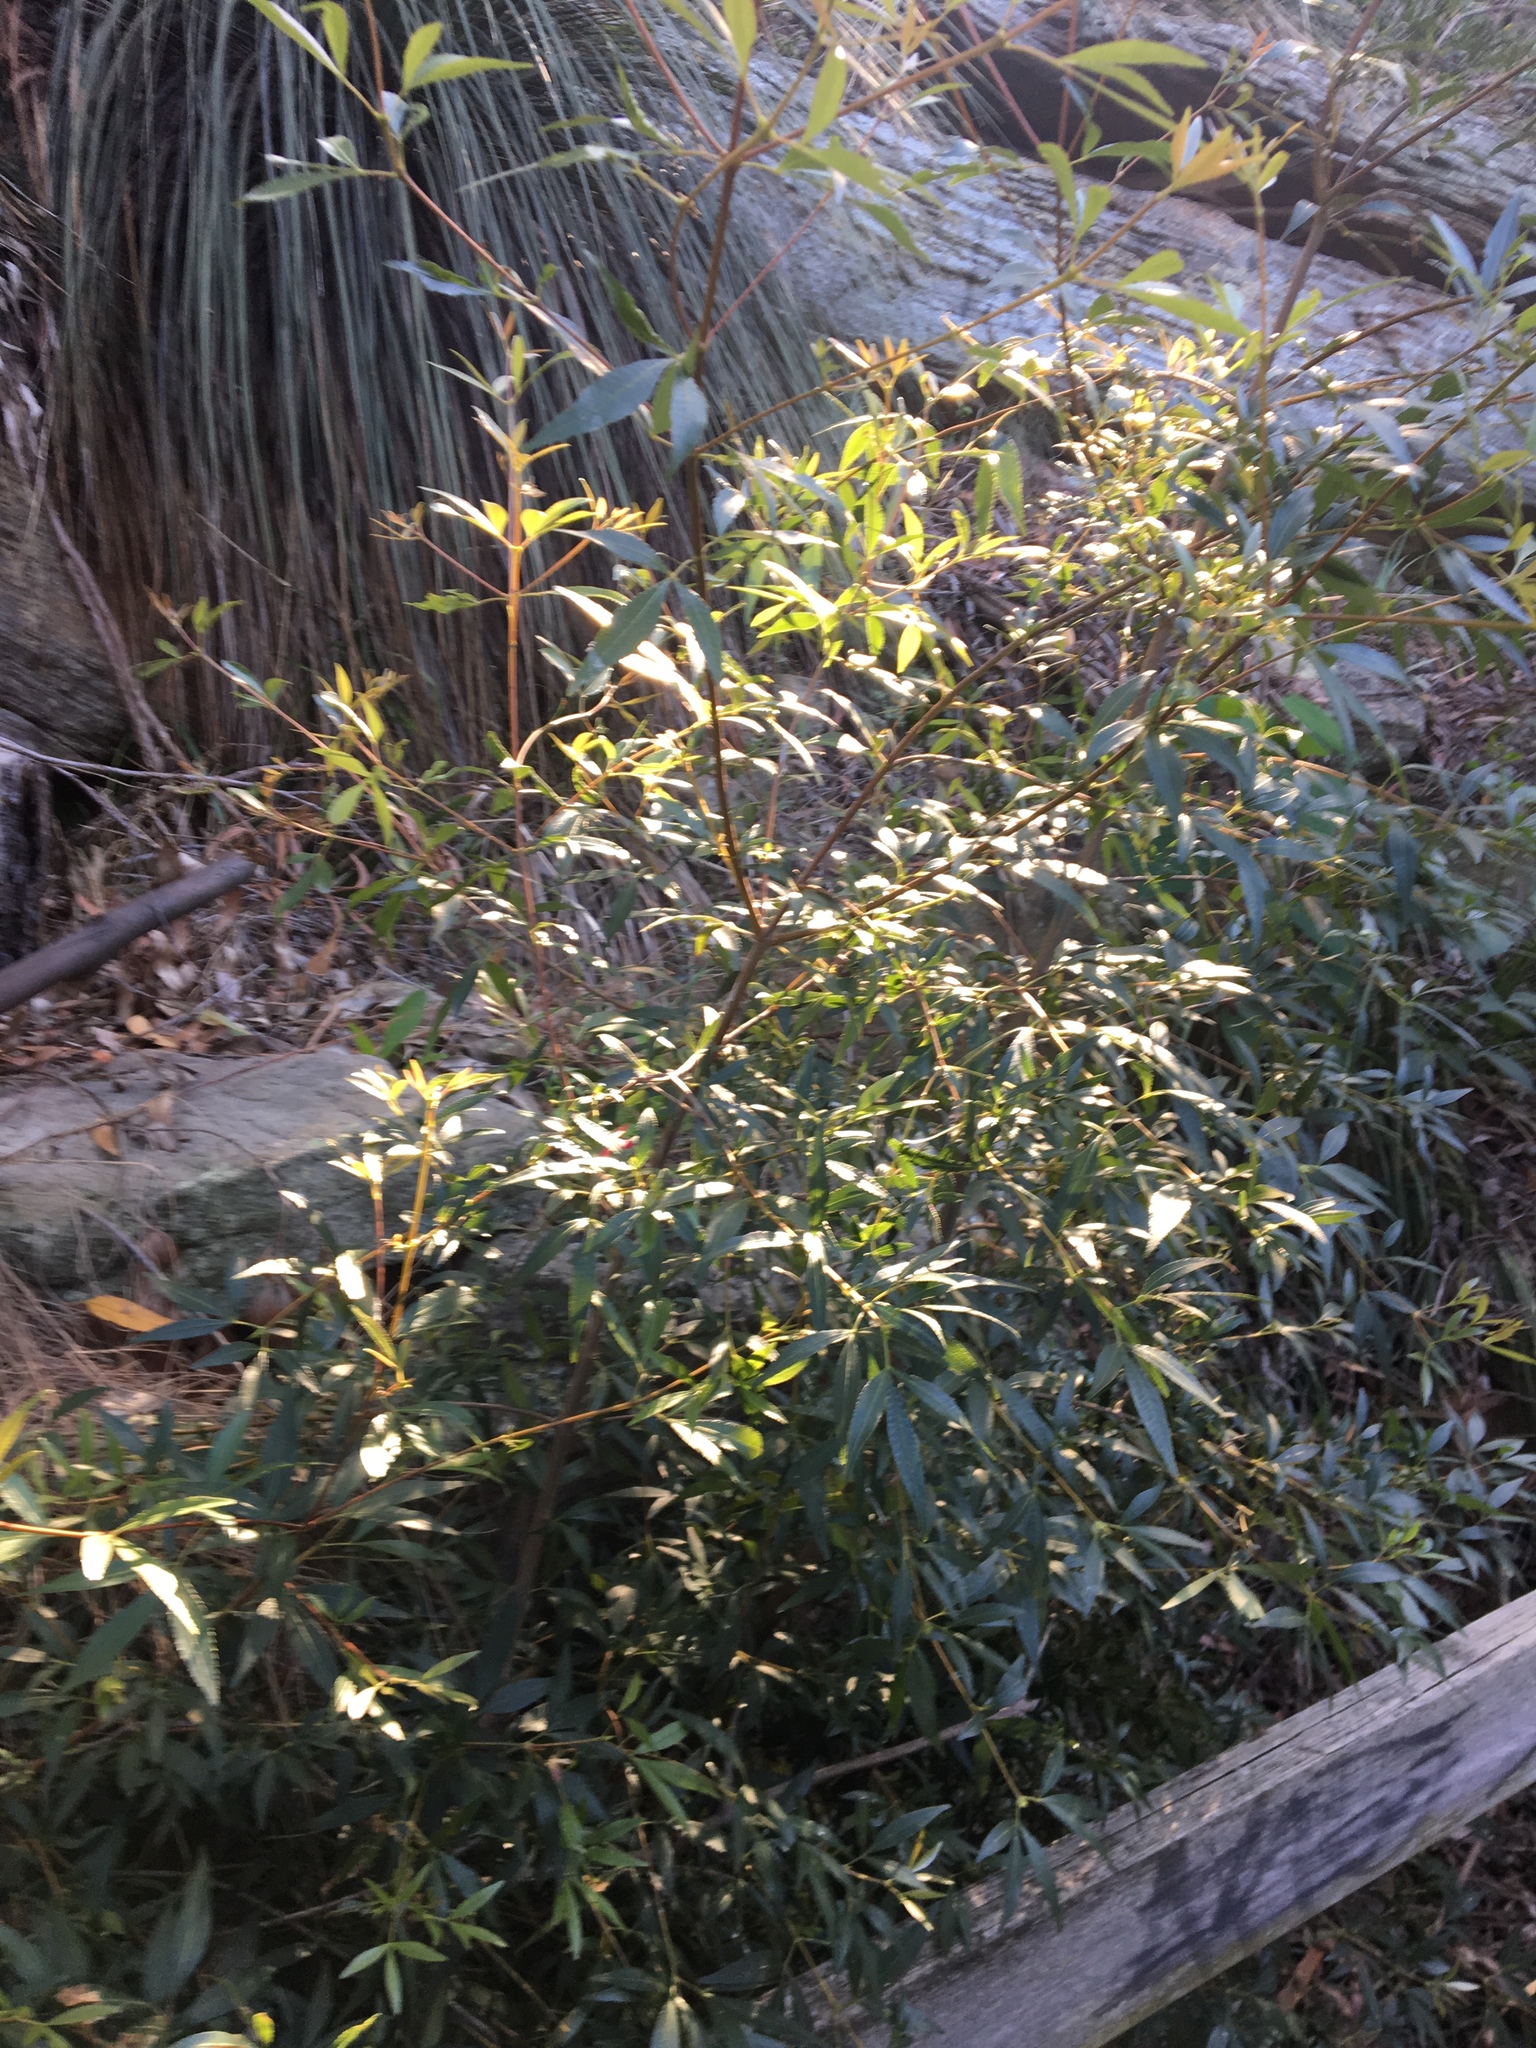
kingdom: Plantae
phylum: Tracheophyta
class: Magnoliopsida
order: Oxalidales
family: Cunoniaceae
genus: Ceratopetalum
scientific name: Ceratopetalum gummiferum
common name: Christmasbush
